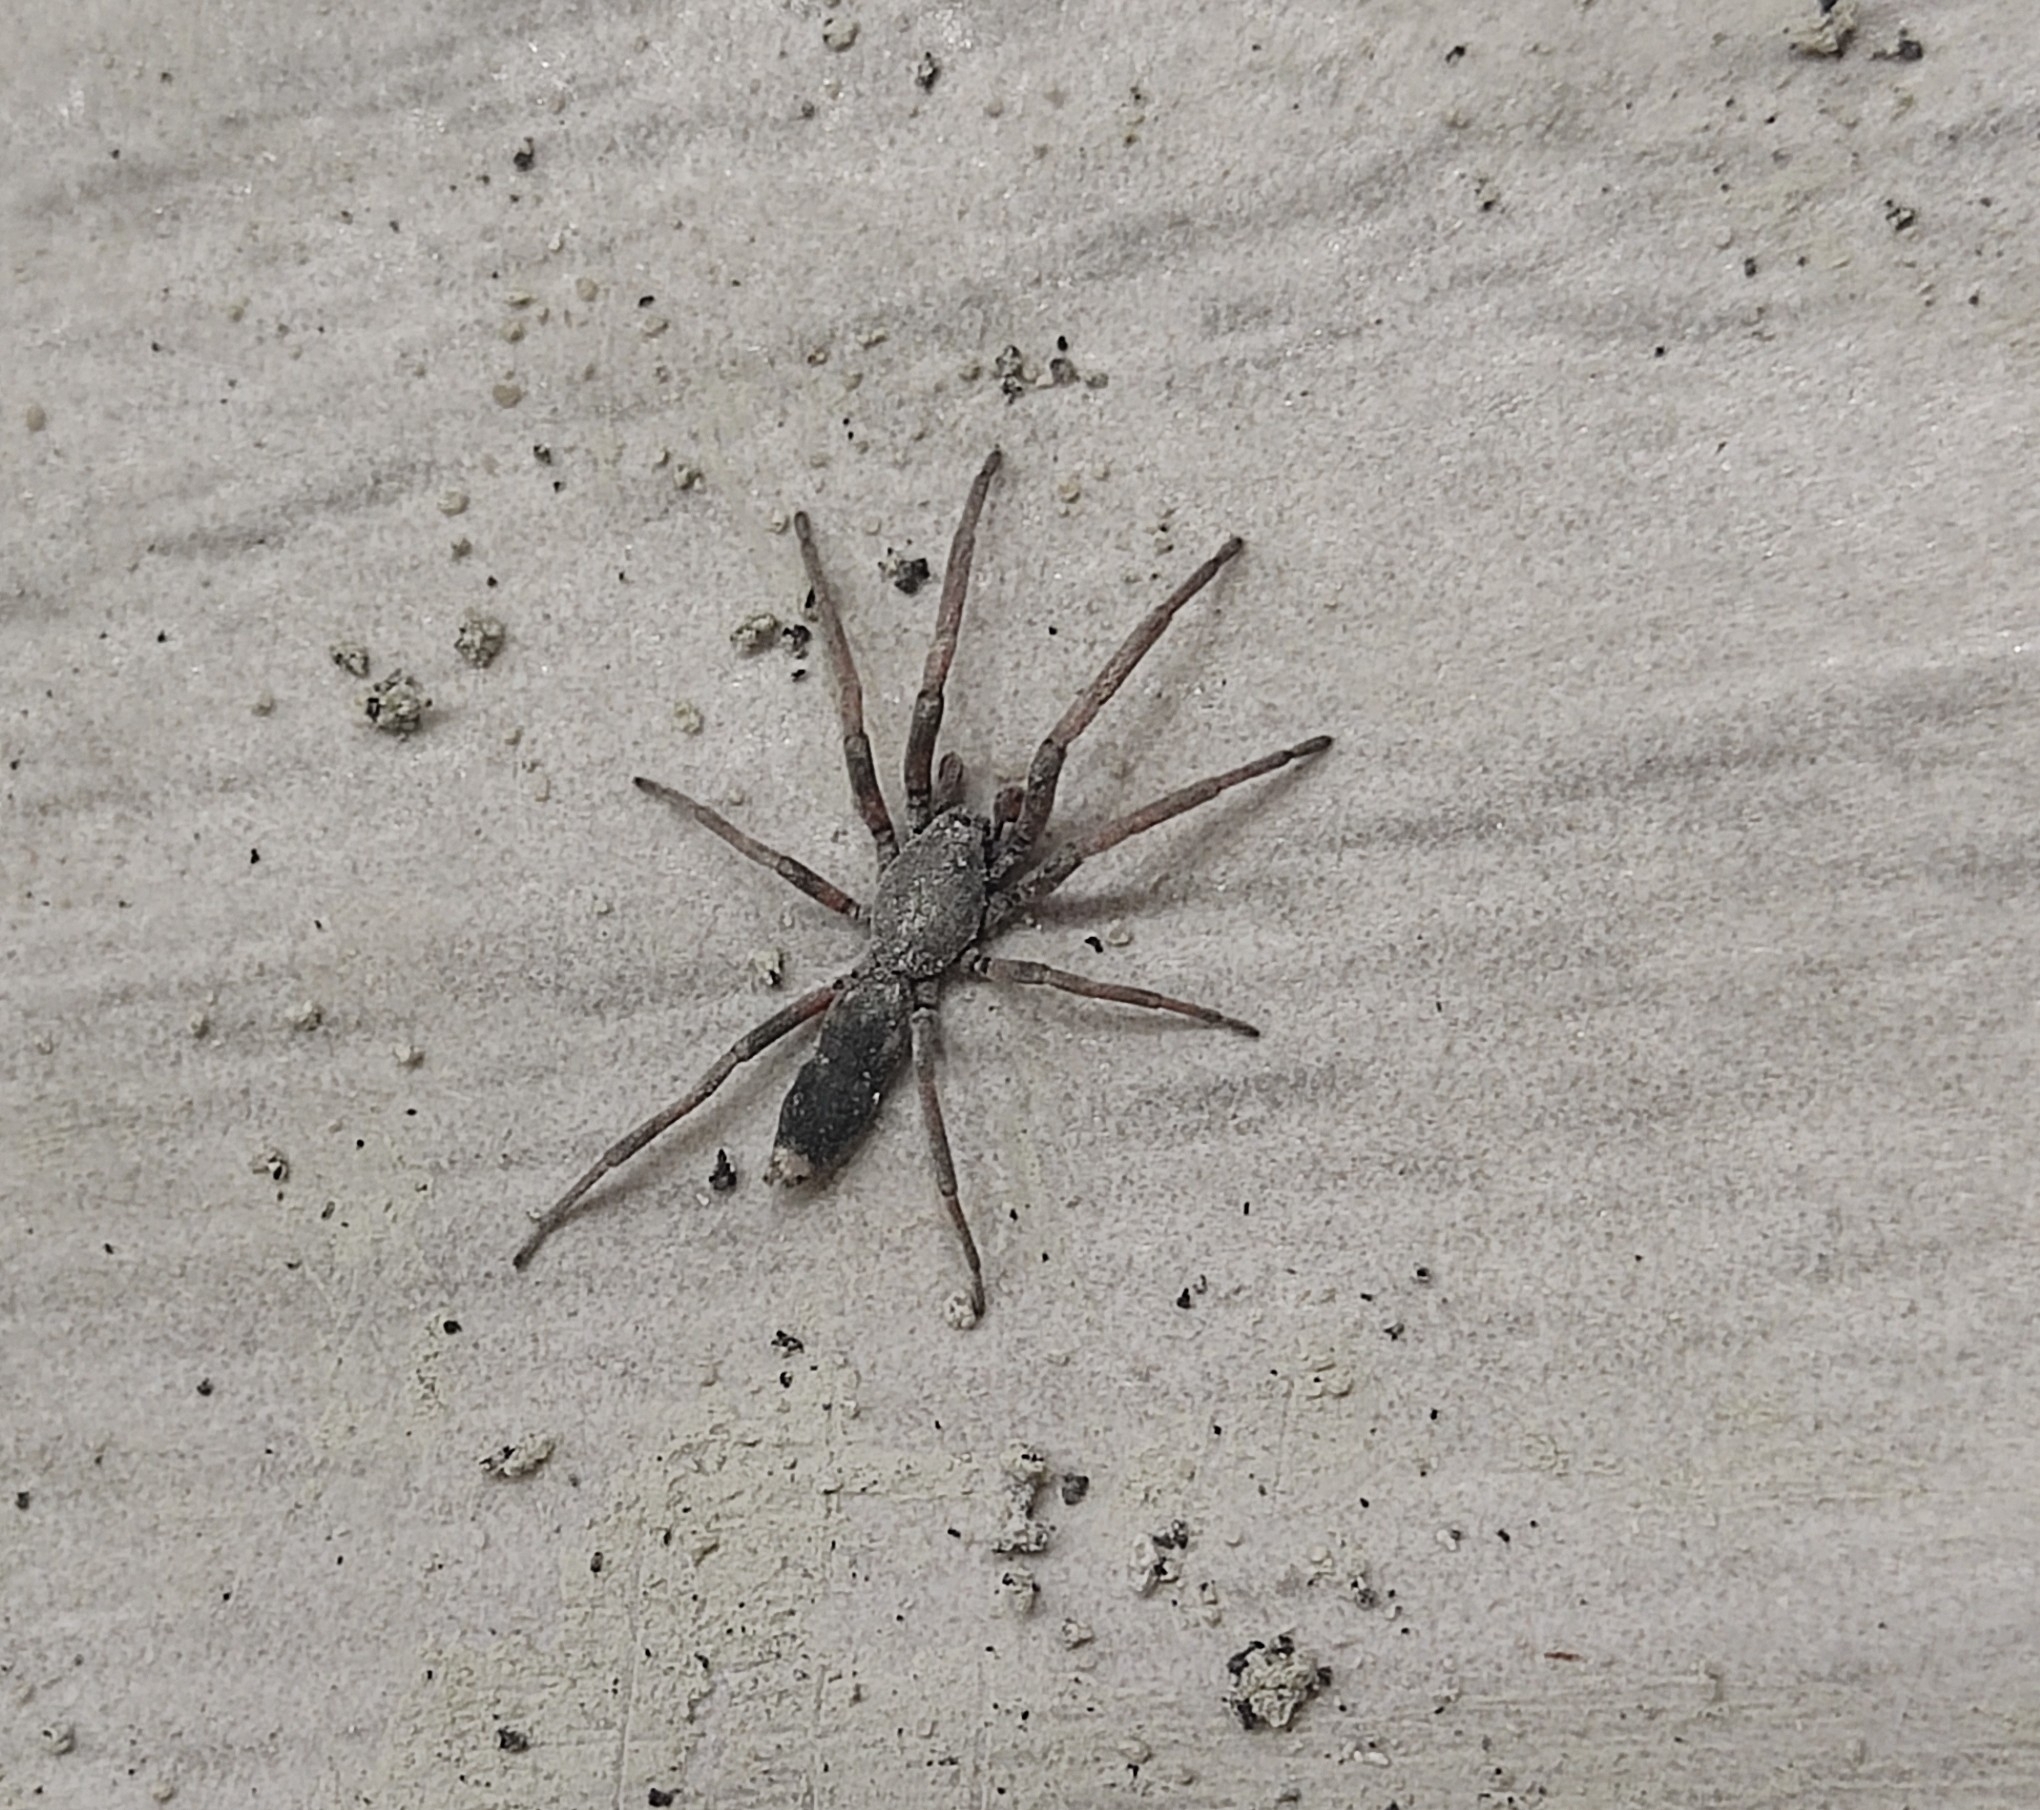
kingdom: Animalia
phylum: Arthropoda
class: Arachnida
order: Araneae
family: Lamponidae
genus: Lampona
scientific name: Lampona cylindrata
